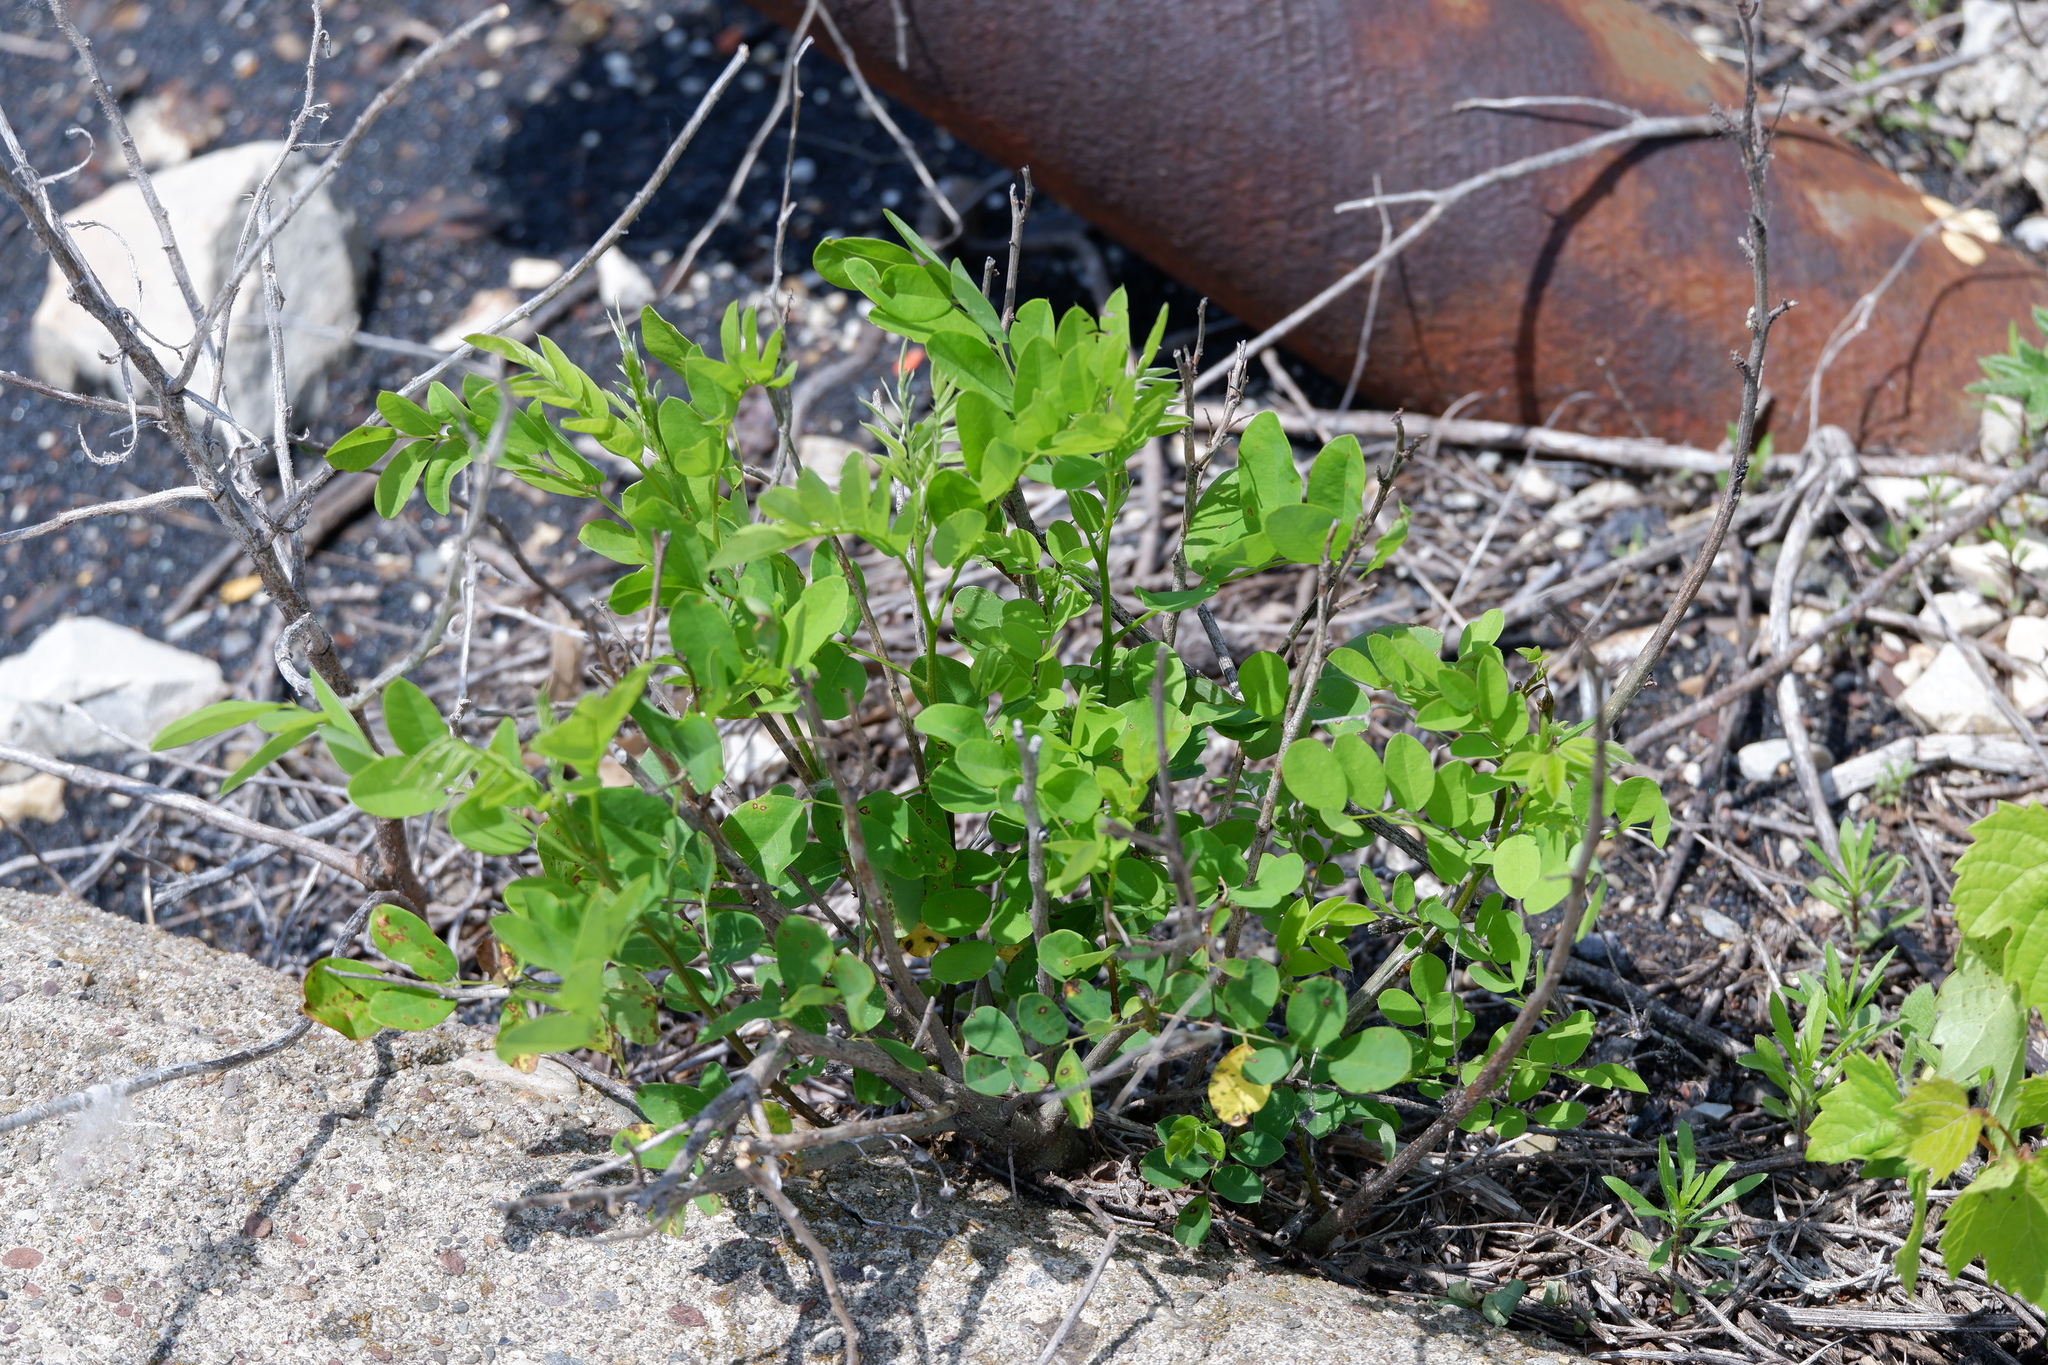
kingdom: Plantae
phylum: Tracheophyta
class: Magnoliopsida
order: Fabales
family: Fabaceae
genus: Robinia
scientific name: Robinia pseudoacacia
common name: Black locust
